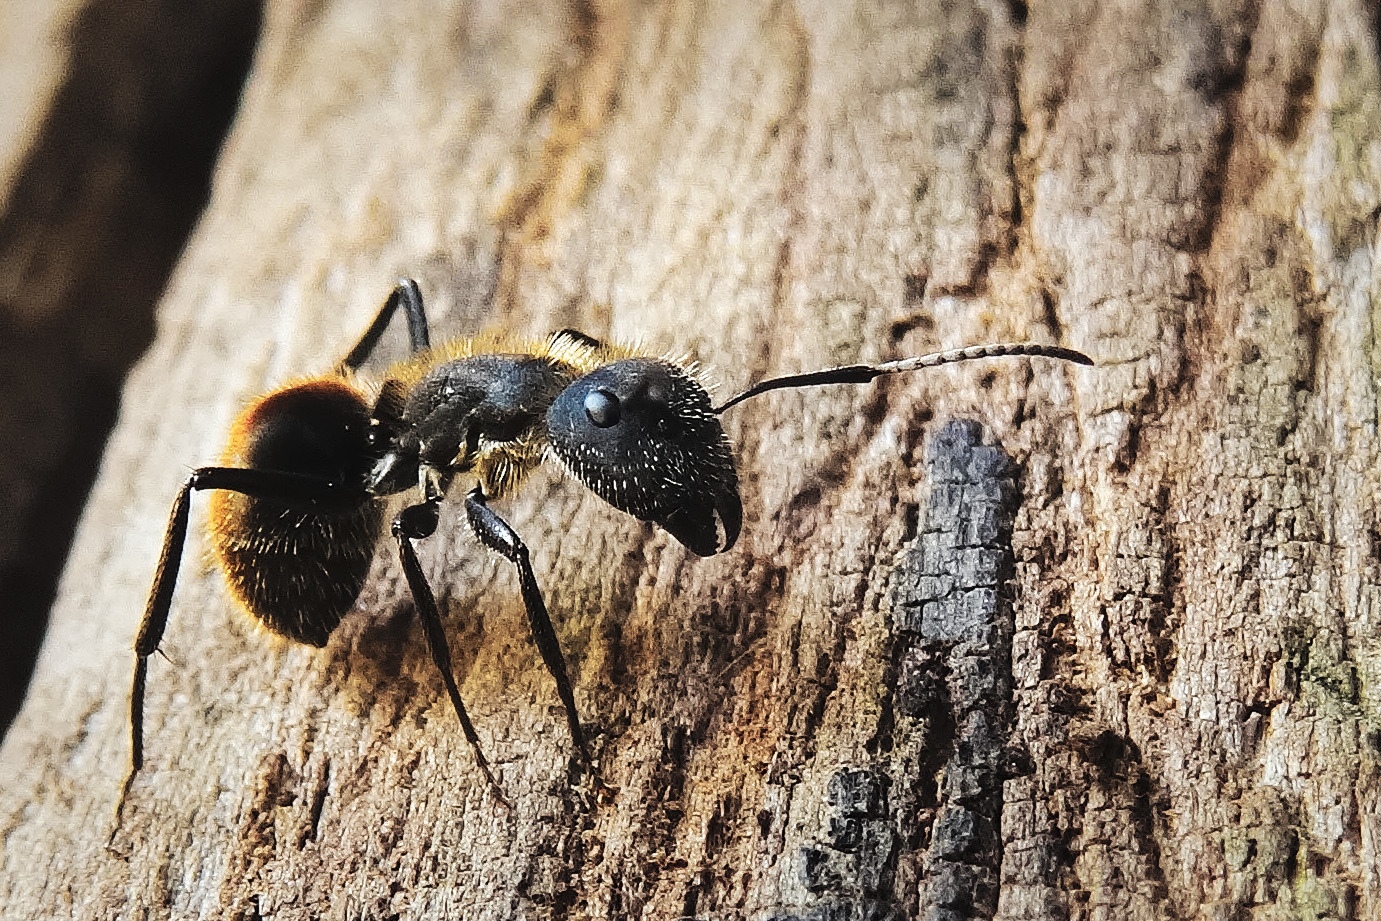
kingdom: Animalia
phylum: Arthropoda
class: Insecta
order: Hymenoptera
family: Formicidae
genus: Camponotus
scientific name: Camponotus mus
